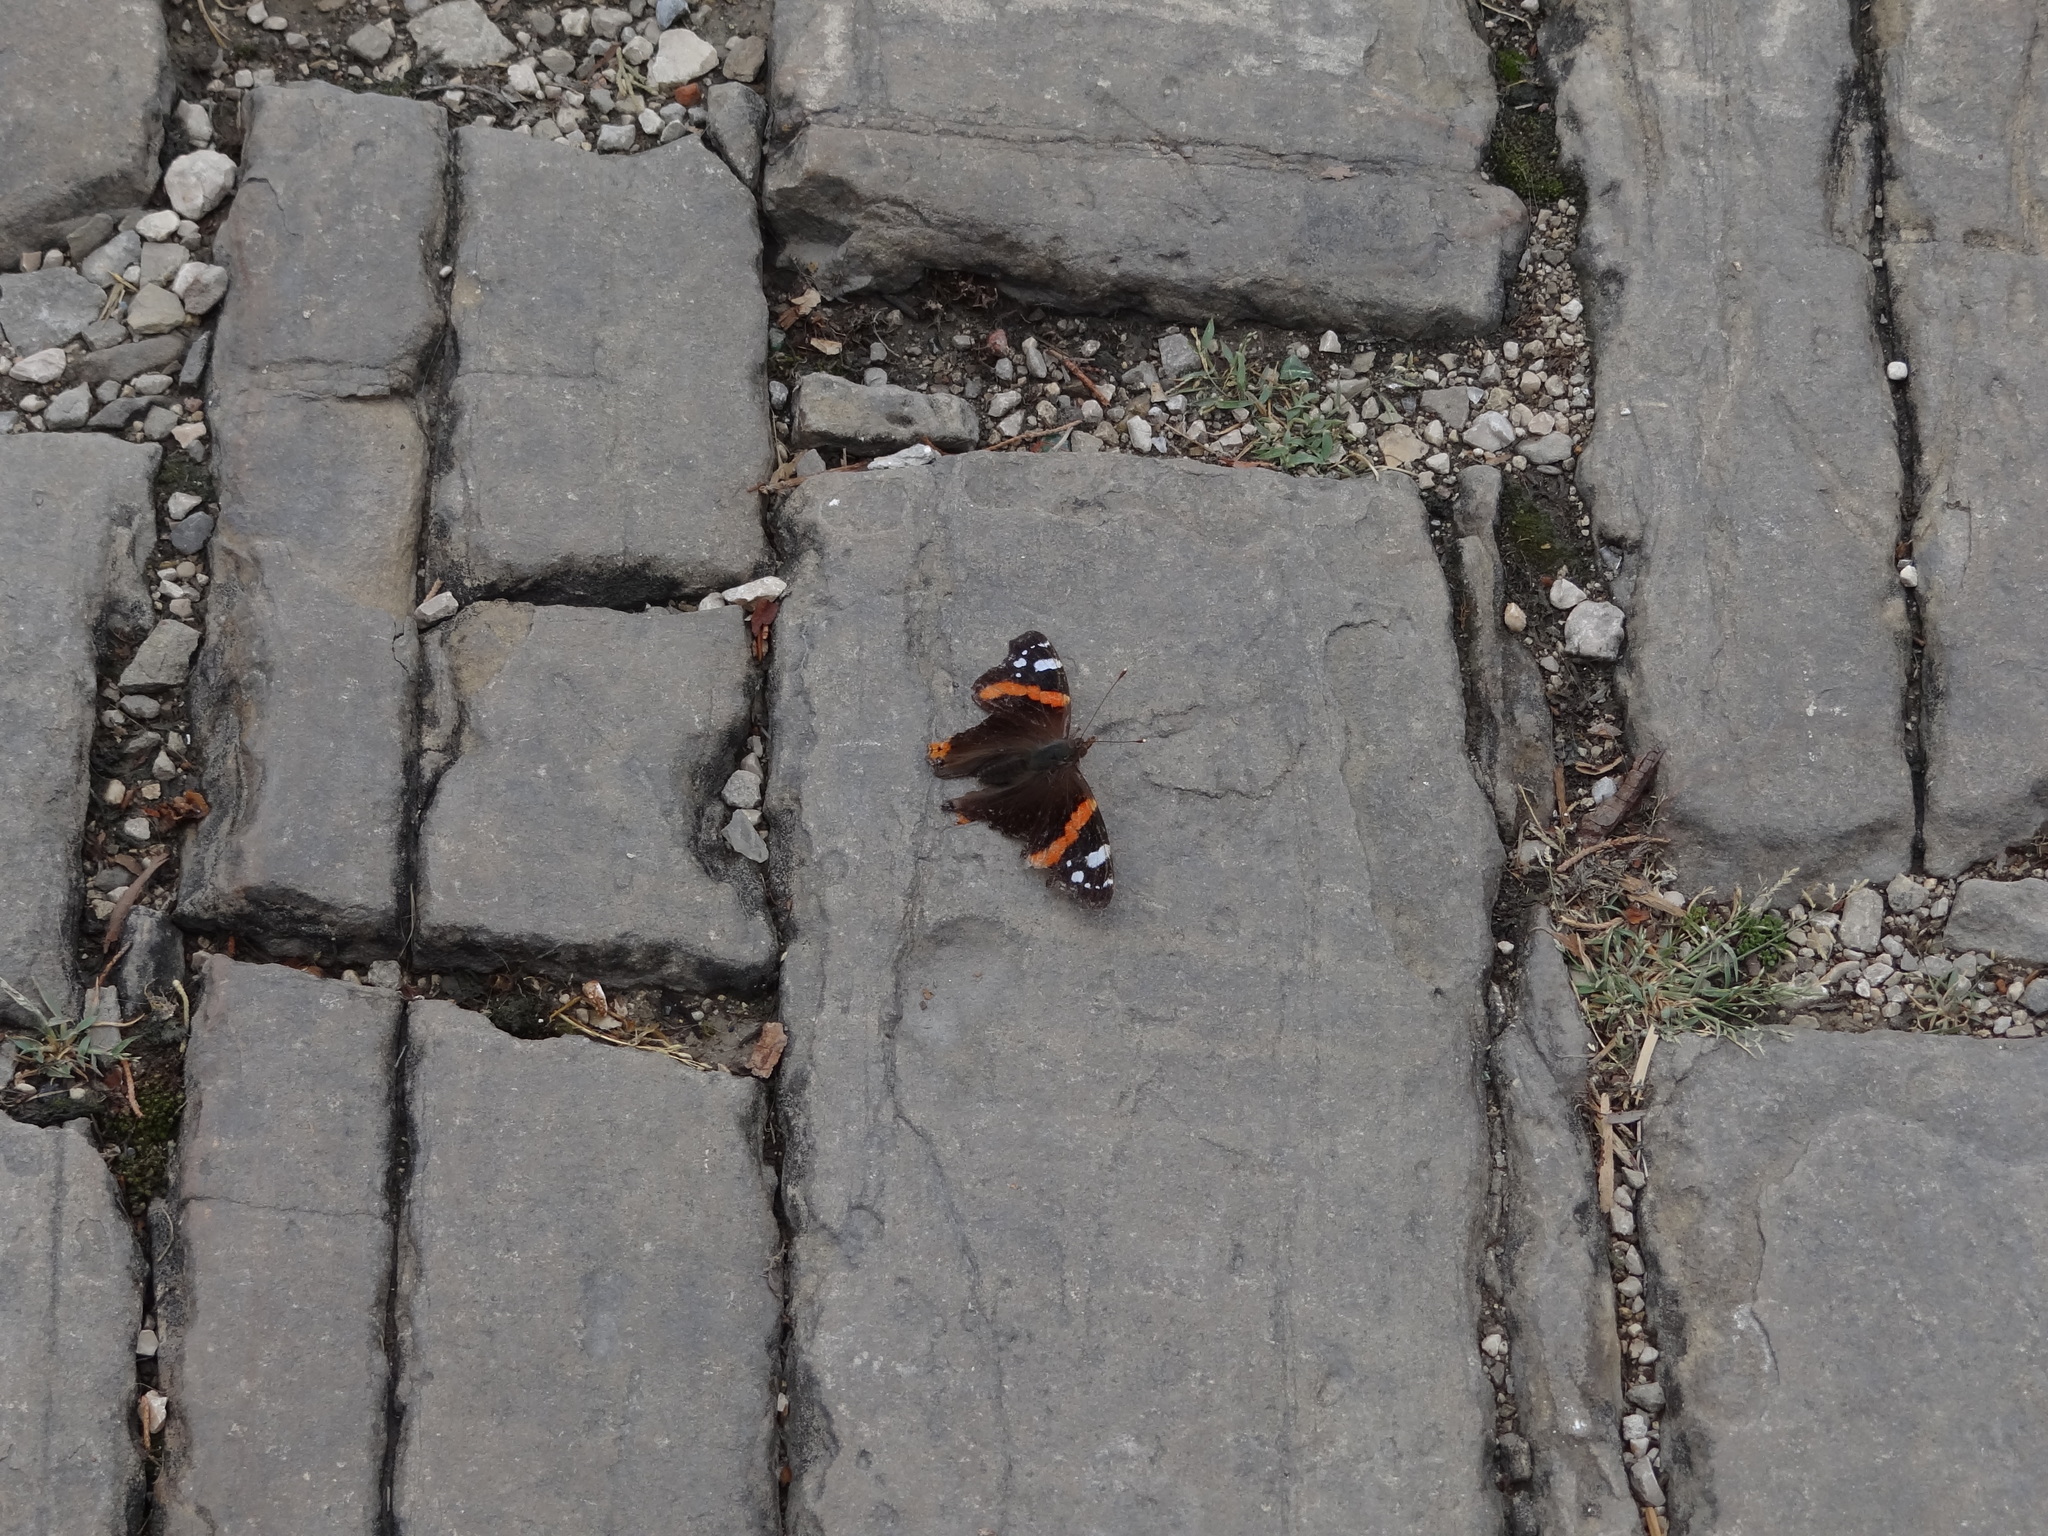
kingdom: Animalia
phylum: Arthropoda
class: Insecta
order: Lepidoptera
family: Nymphalidae
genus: Vanessa
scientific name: Vanessa atalanta
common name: Red admiral
